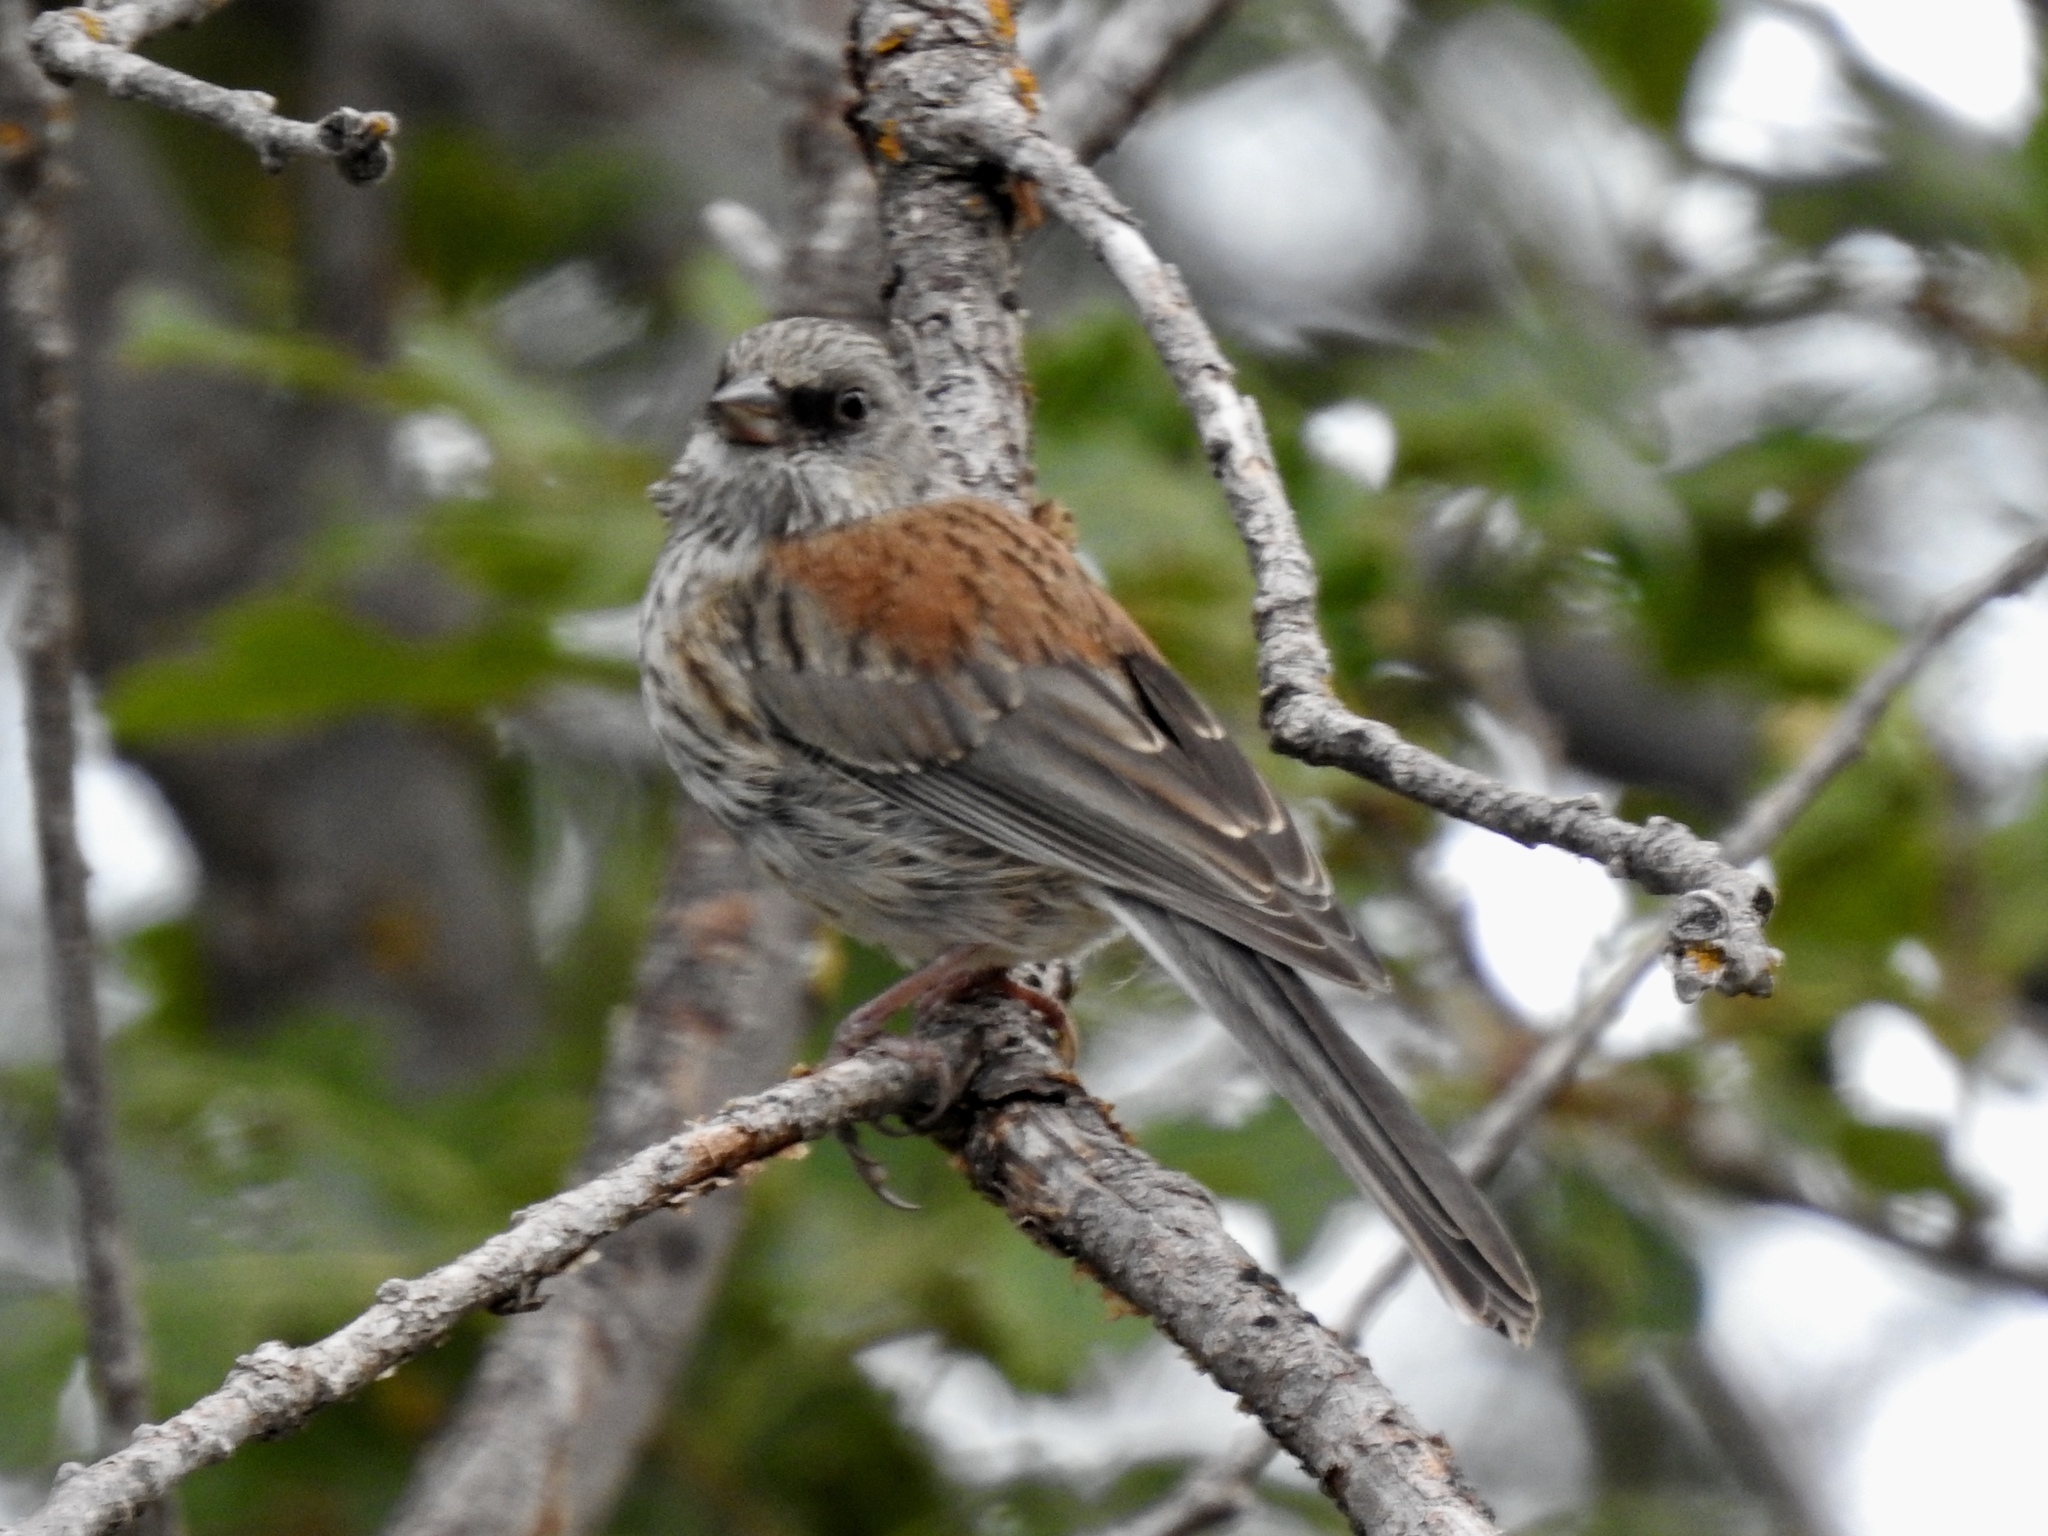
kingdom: Animalia
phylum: Chordata
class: Aves
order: Passeriformes
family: Passerellidae
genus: Junco
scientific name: Junco hyemalis
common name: Dark-eyed junco
